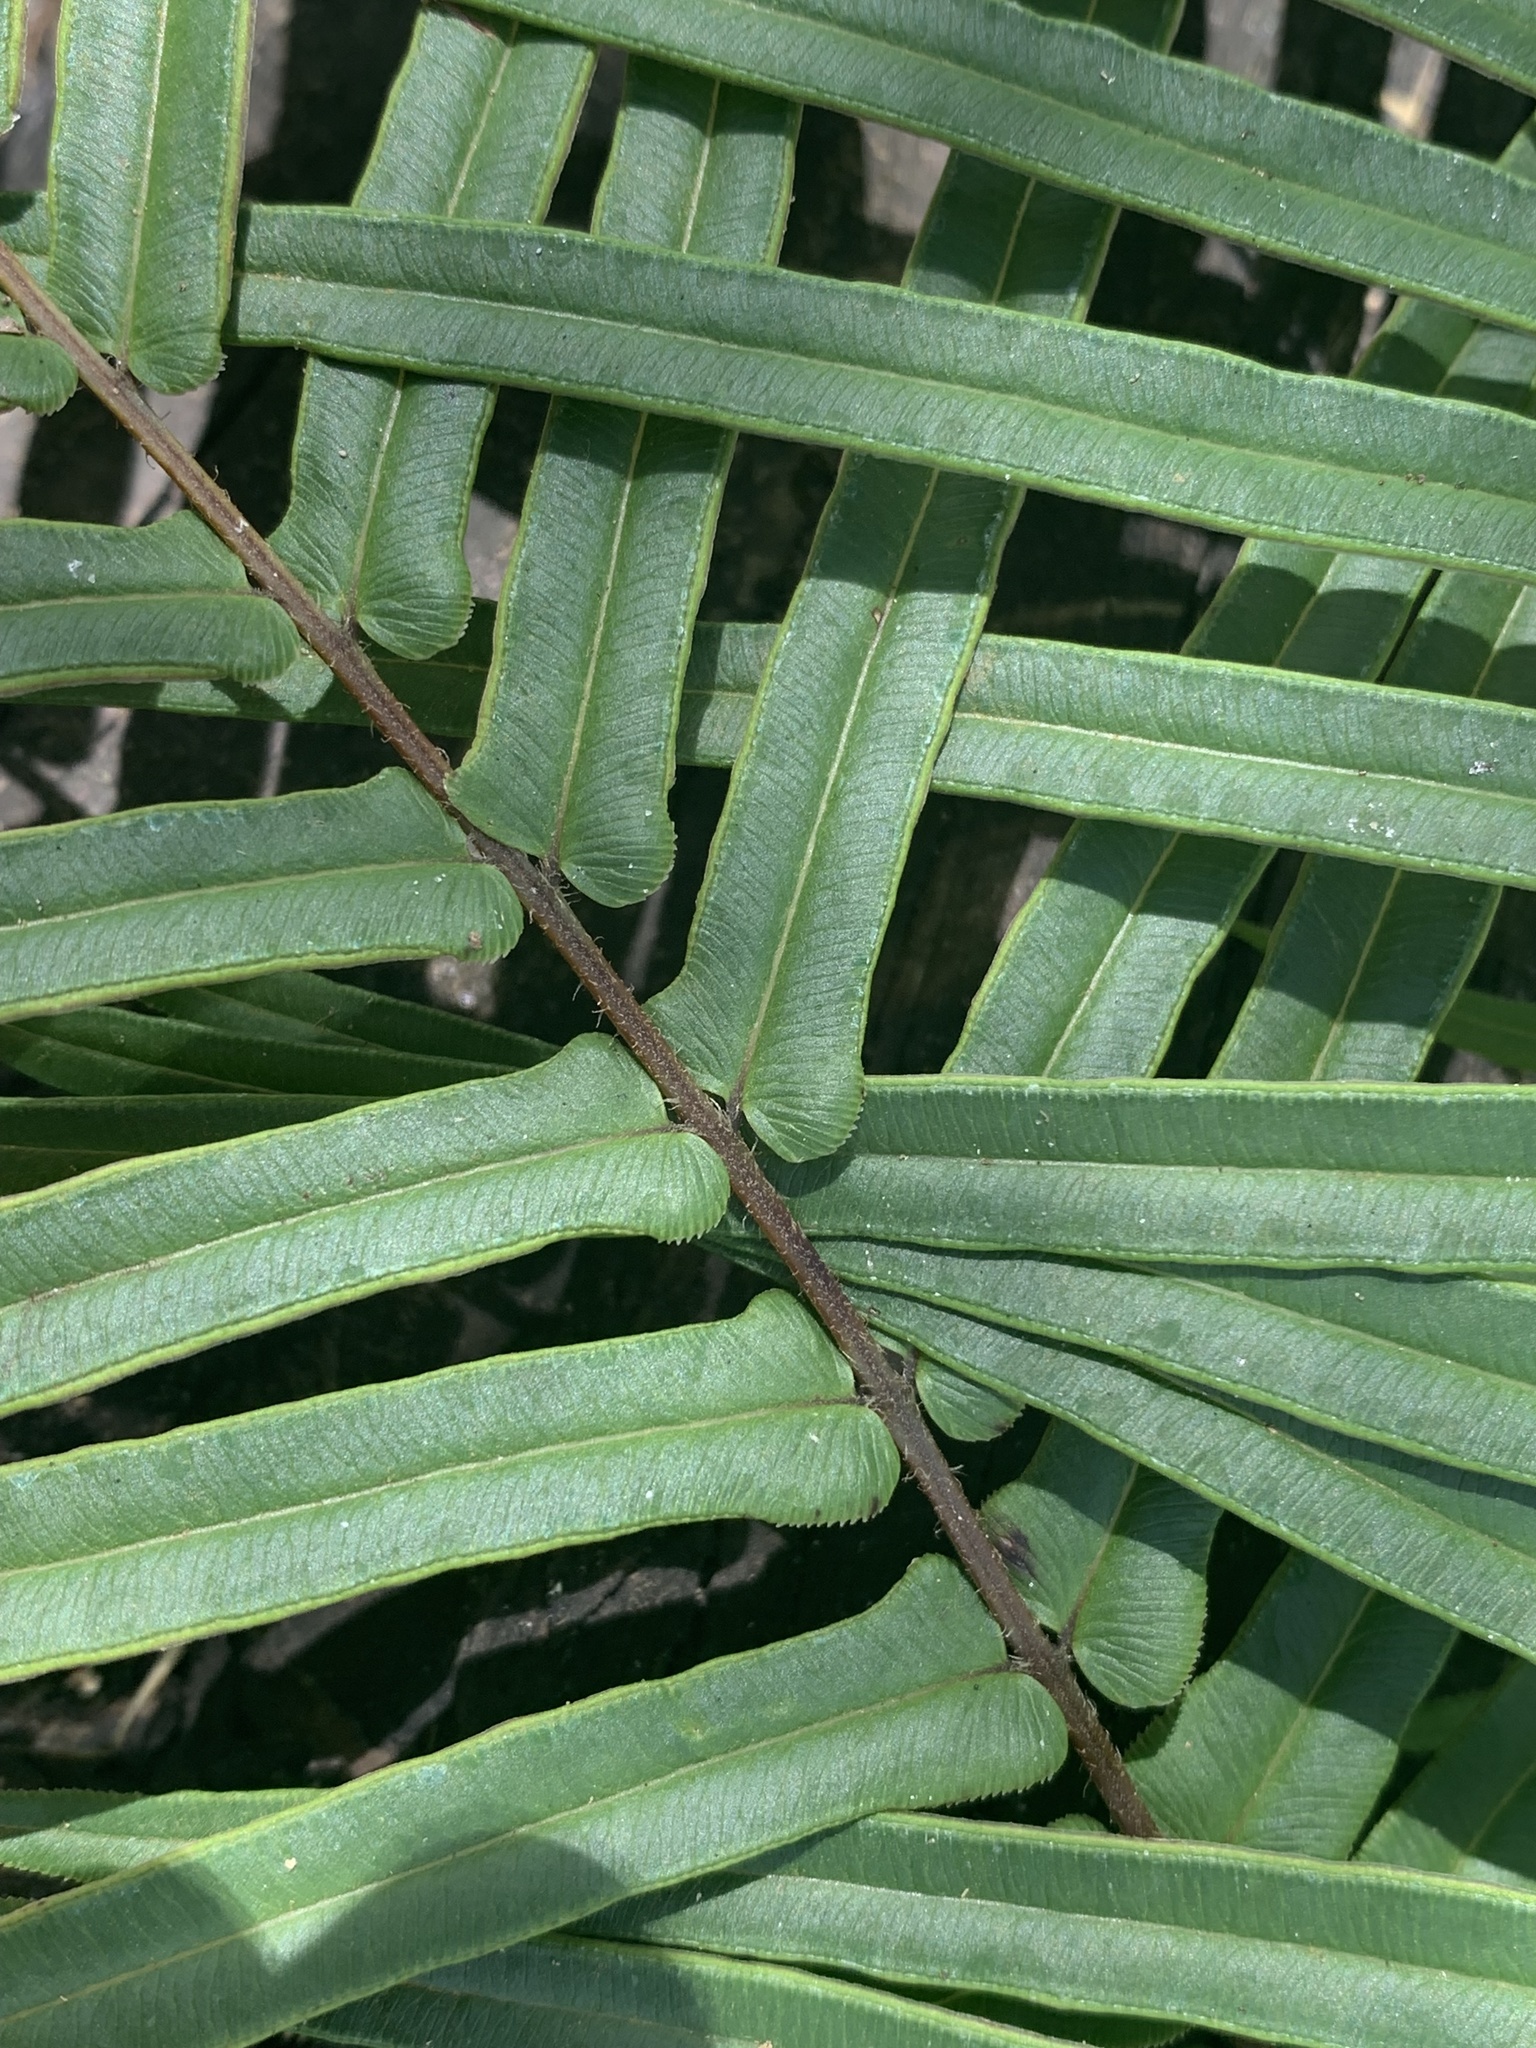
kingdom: Plantae
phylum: Tracheophyta
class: Polypodiopsida
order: Polypodiales
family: Pteridaceae
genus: Pteris
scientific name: Pteris vittata
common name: Ladder brake
